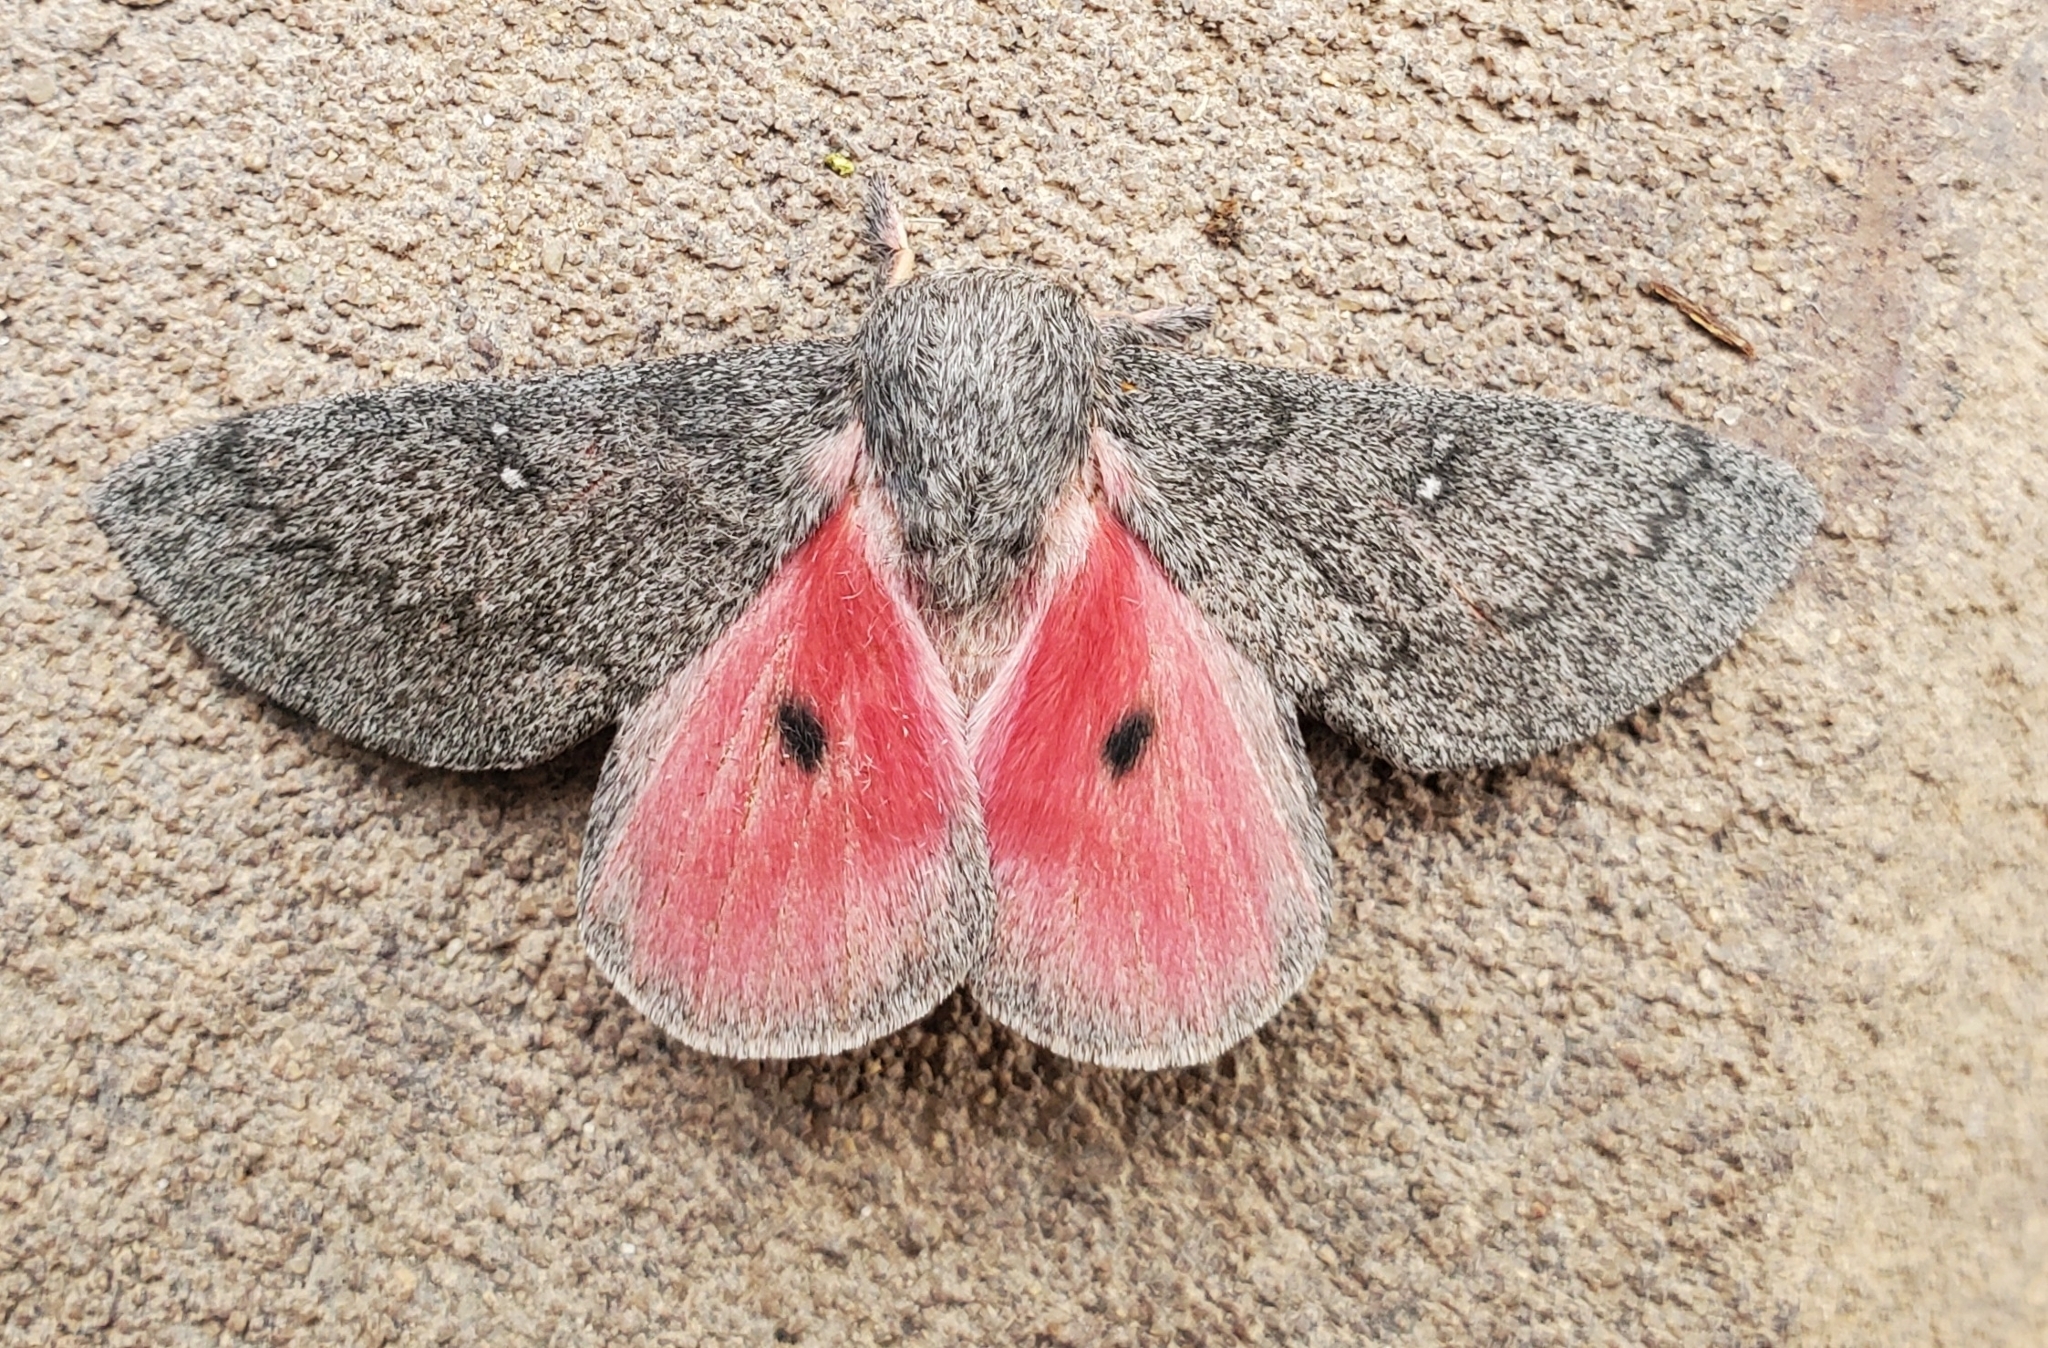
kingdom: Animalia
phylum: Arthropoda
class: Insecta
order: Lepidoptera
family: Saturniidae
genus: Syssphinx
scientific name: Syssphinx hubbardi
